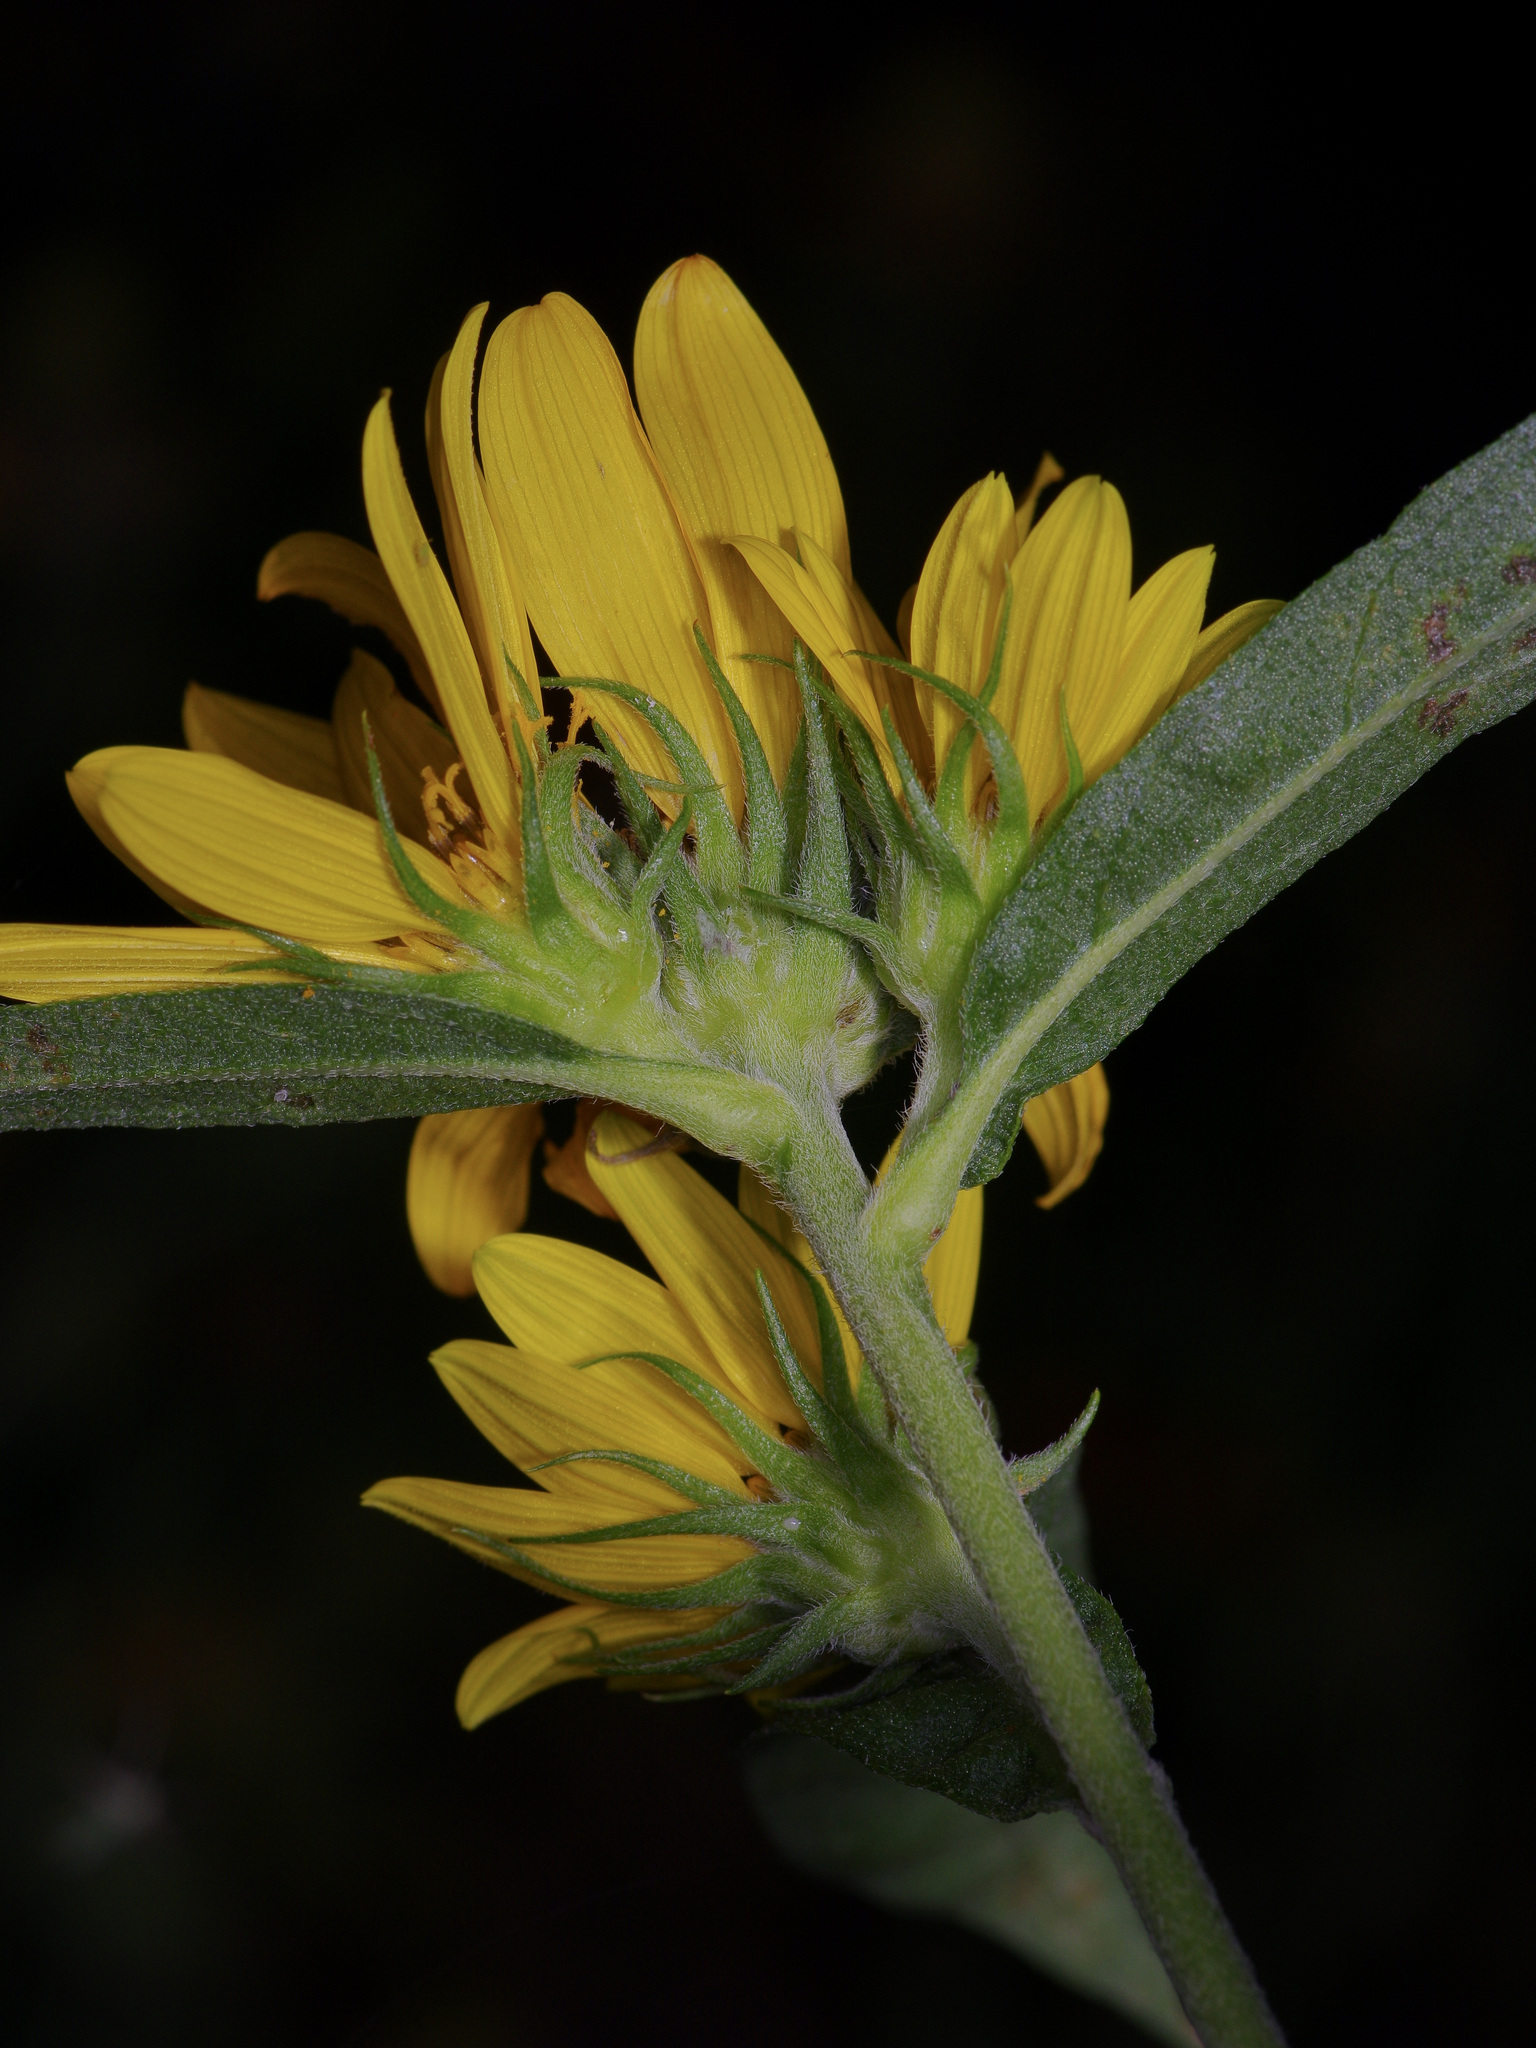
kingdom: Plantae
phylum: Tracheophyta
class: Magnoliopsida
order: Asterales
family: Asteraceae
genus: Helianthus
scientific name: Helianthus maximiliani
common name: Maximilian's sunflower
